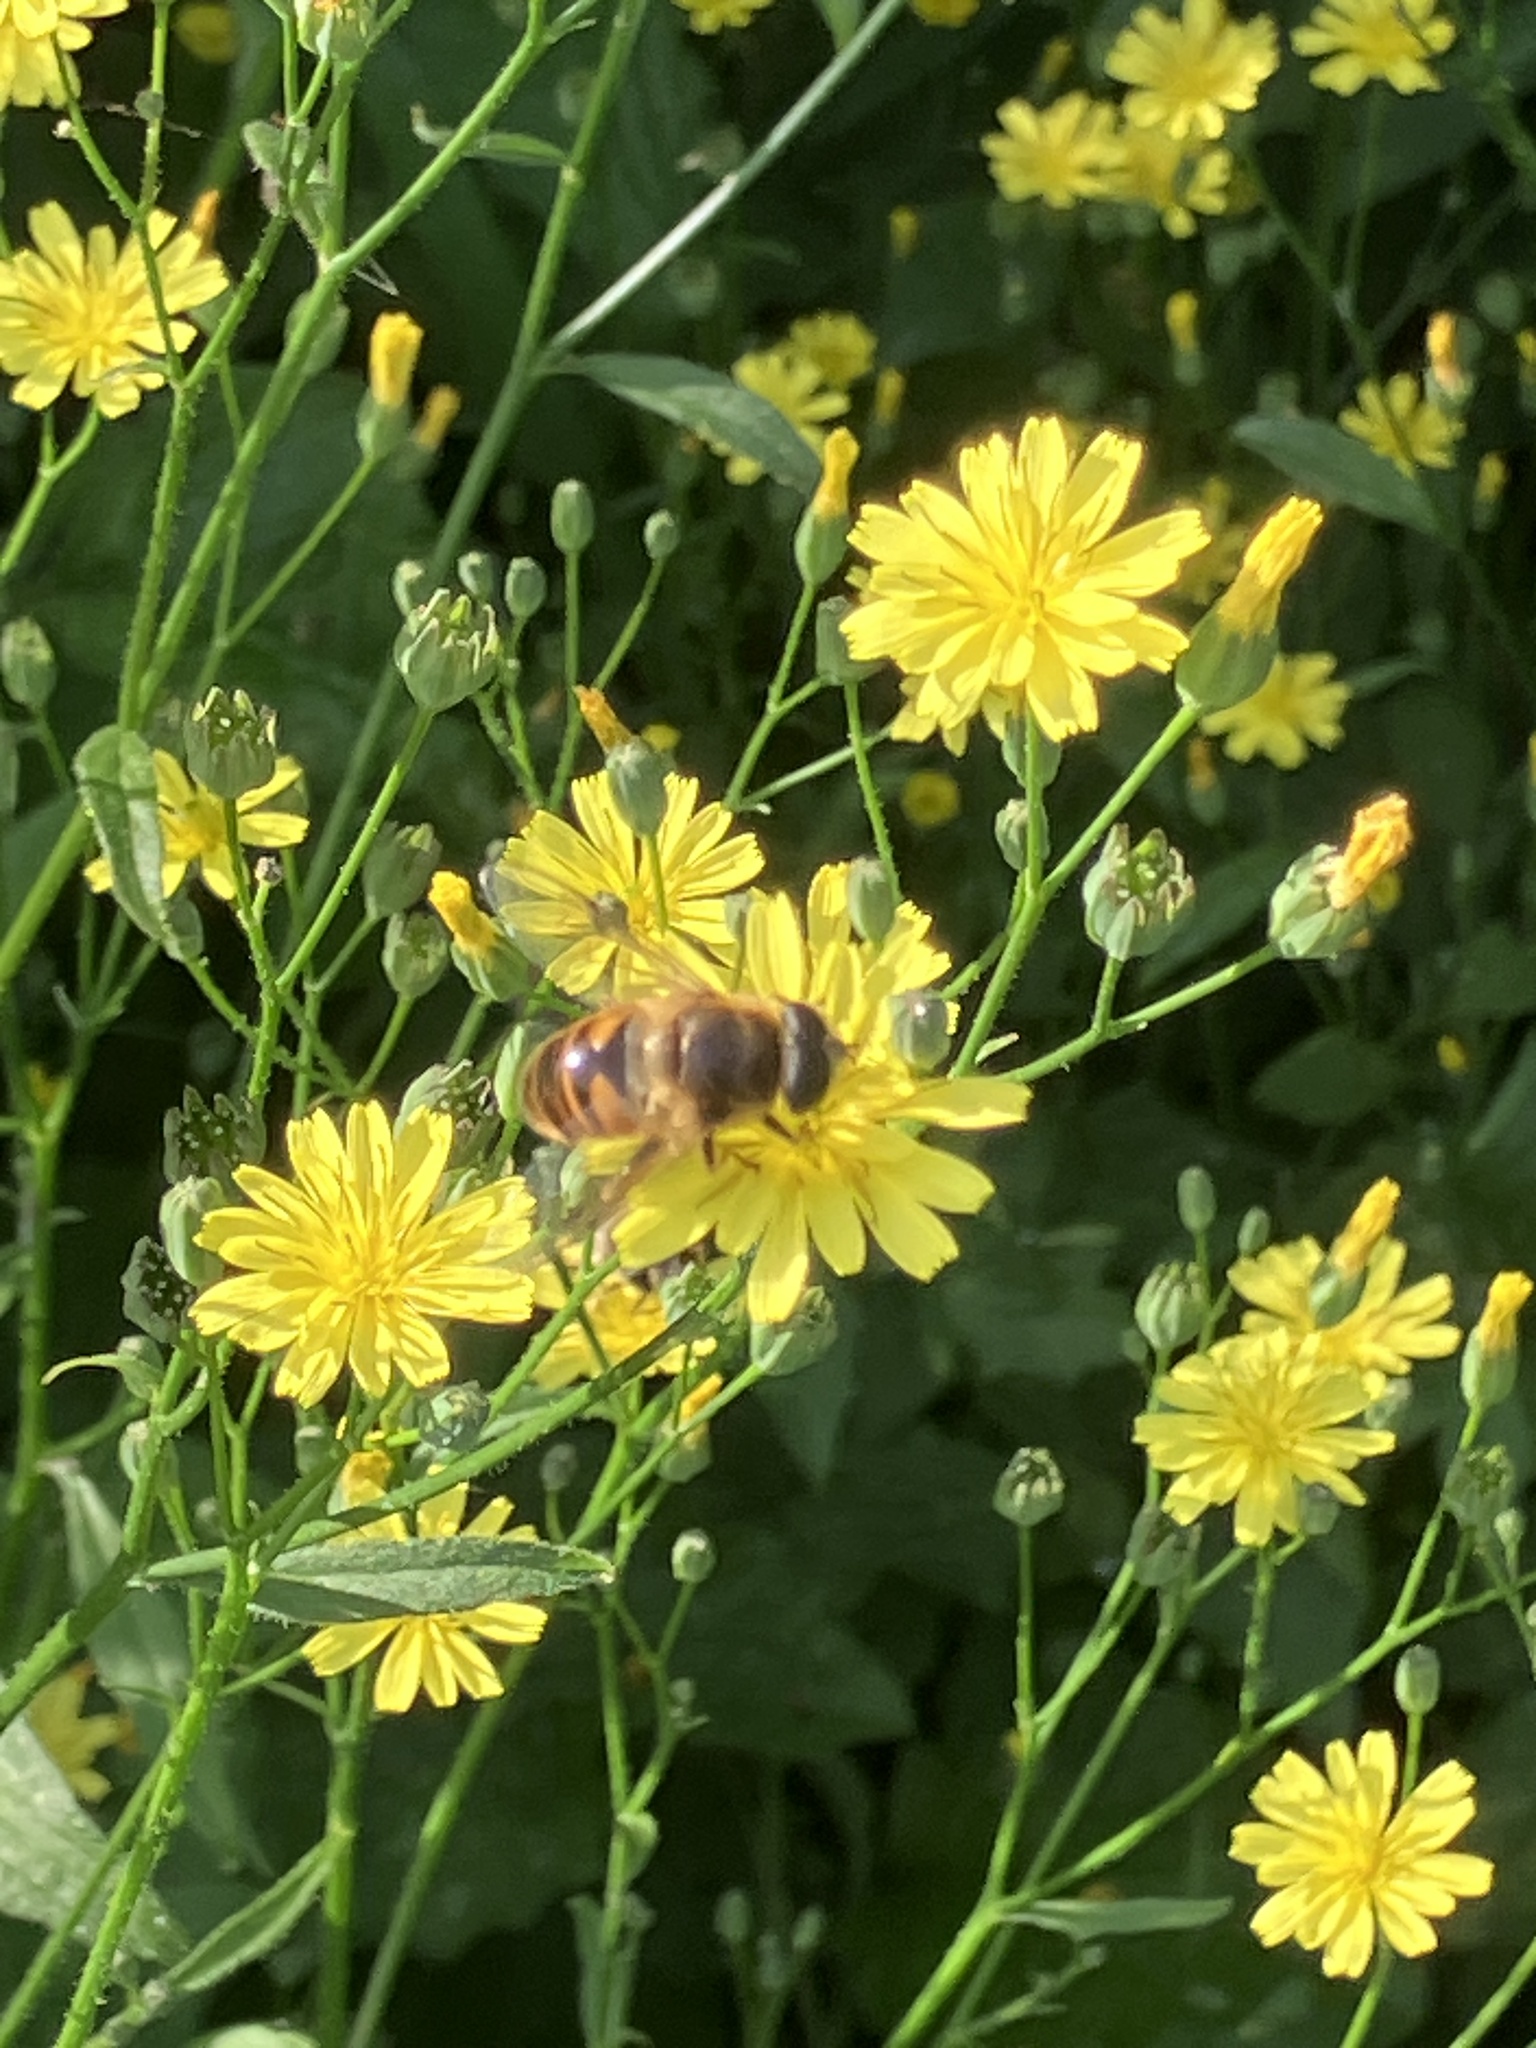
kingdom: Animalia
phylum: Arthropoda
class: Insecta
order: Diptera
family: Syrphidae
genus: Eristalis
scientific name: Eristalis tenax
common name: Drone fly
